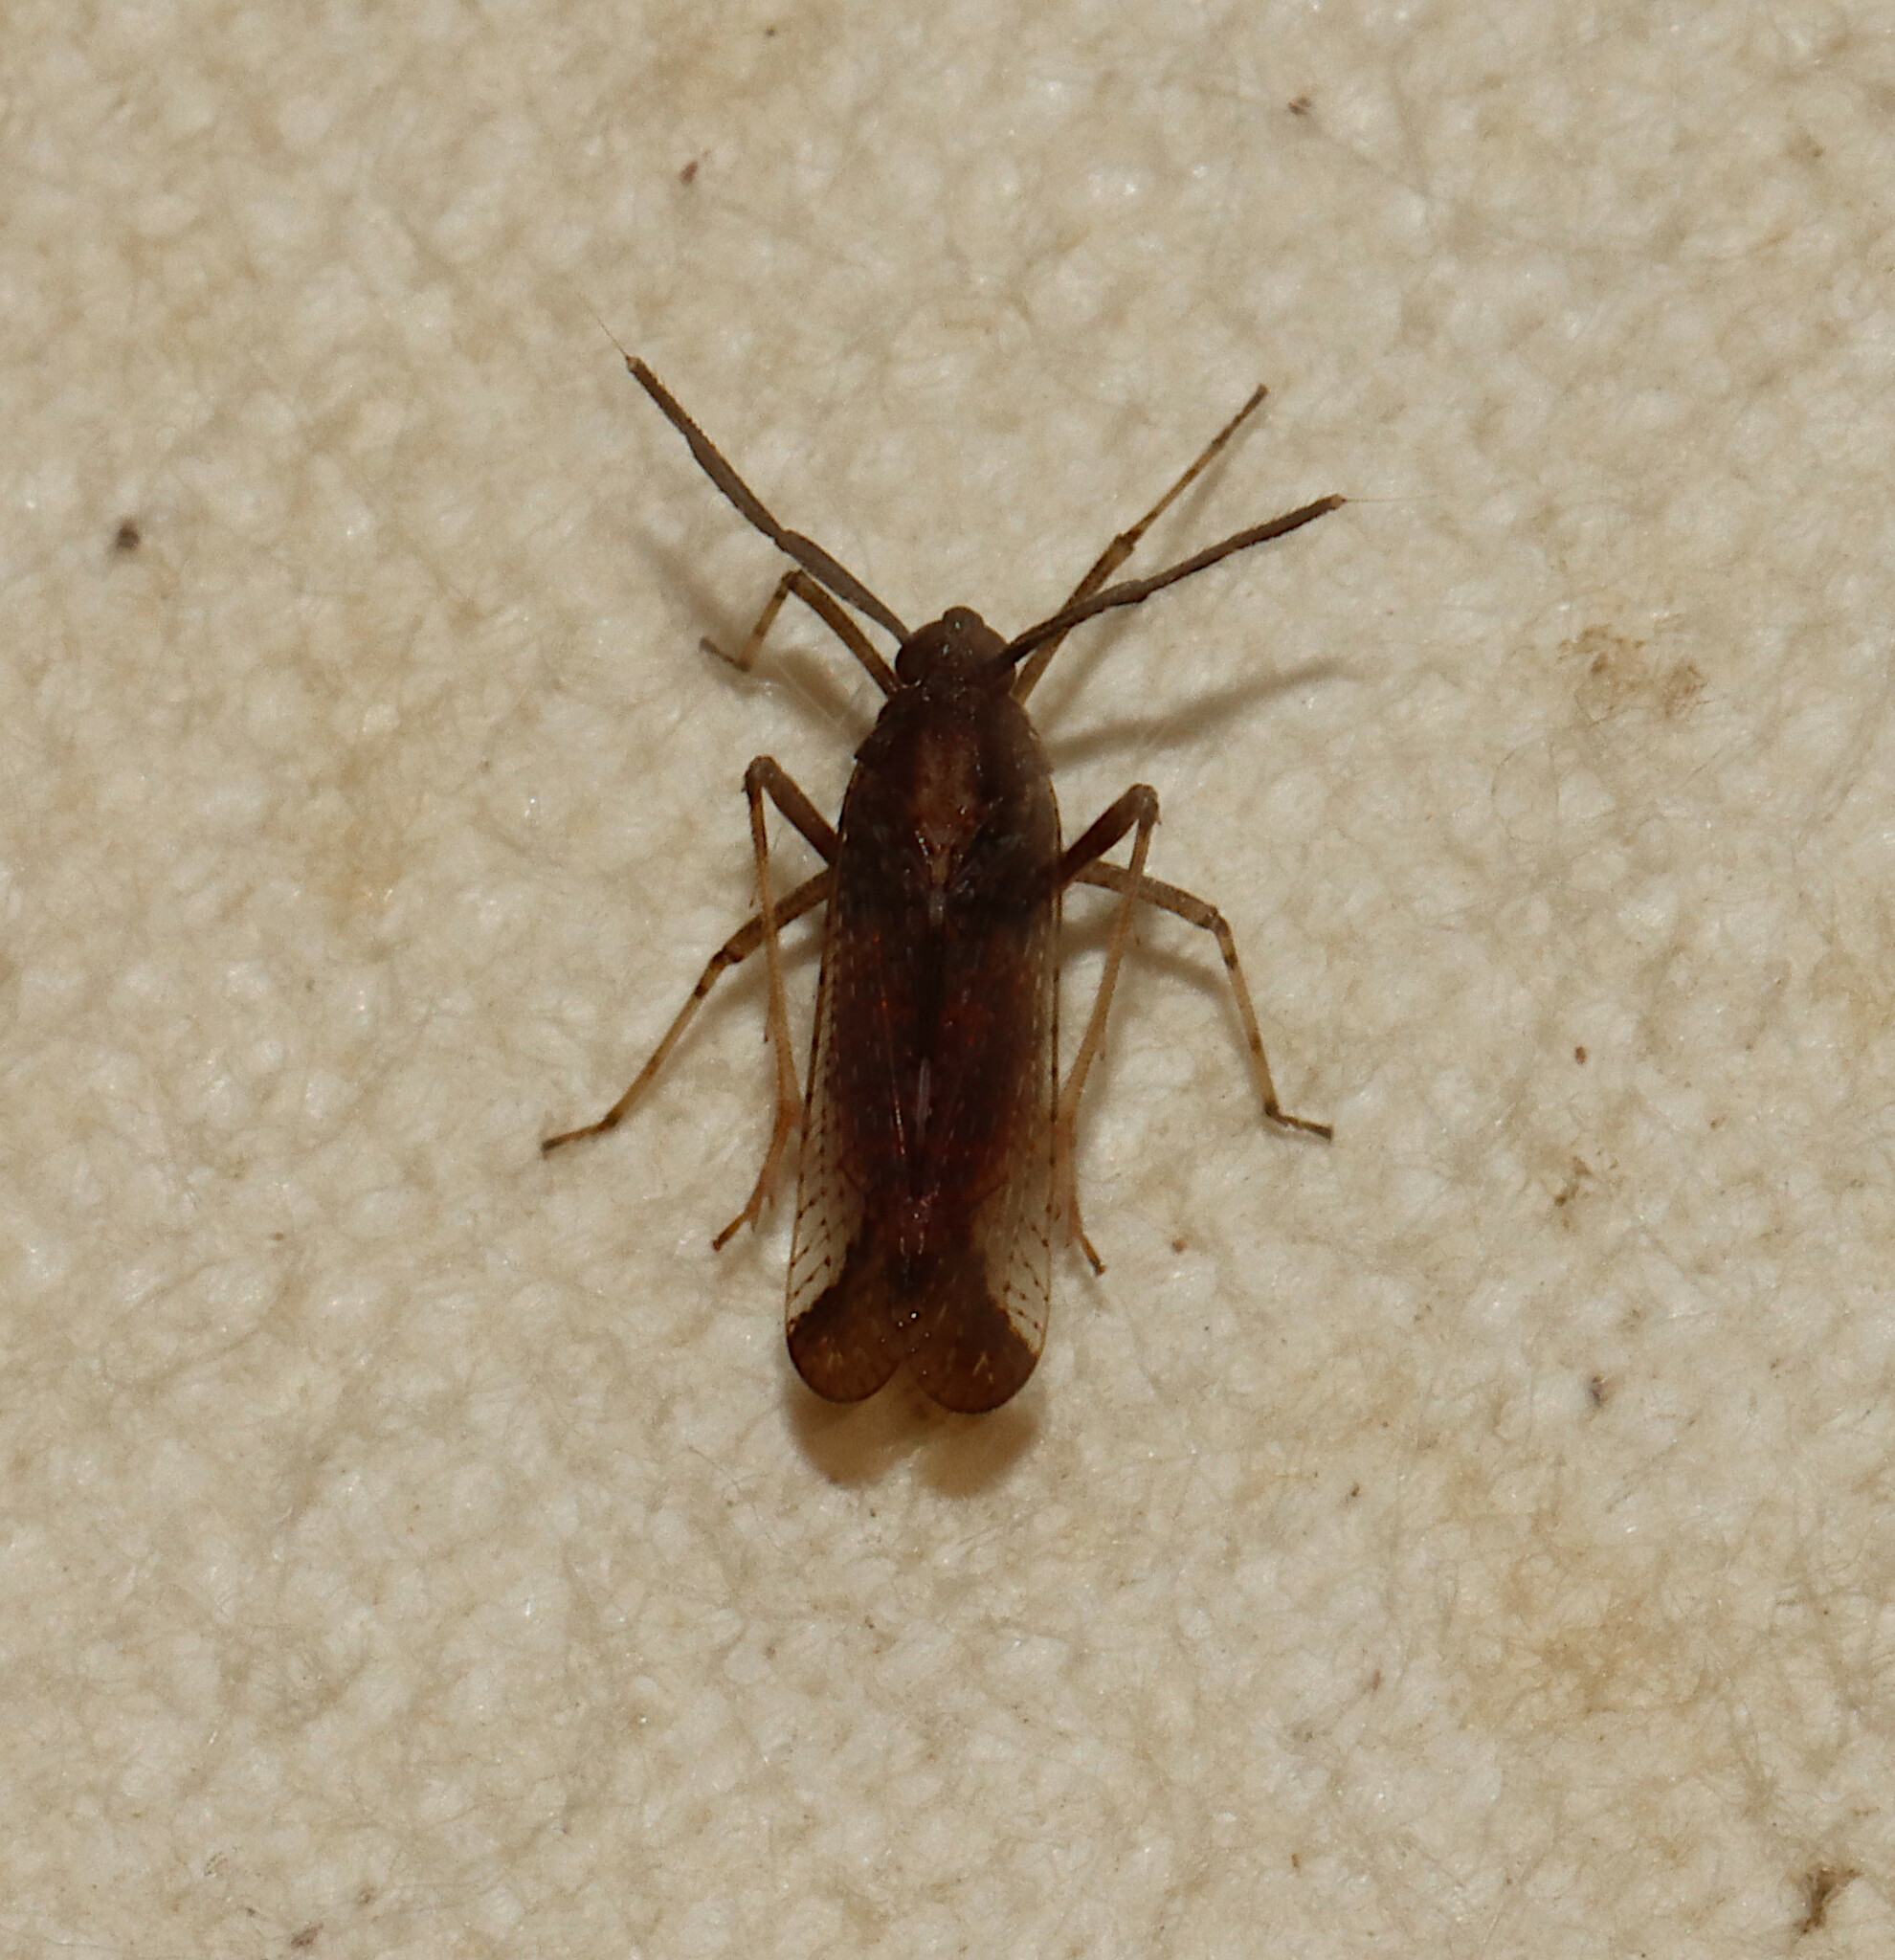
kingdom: Animalia
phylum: Arthropoda
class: Insecta
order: Hemiptera
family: Delphacidae
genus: Copicerus
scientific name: Copicerus irroratus
